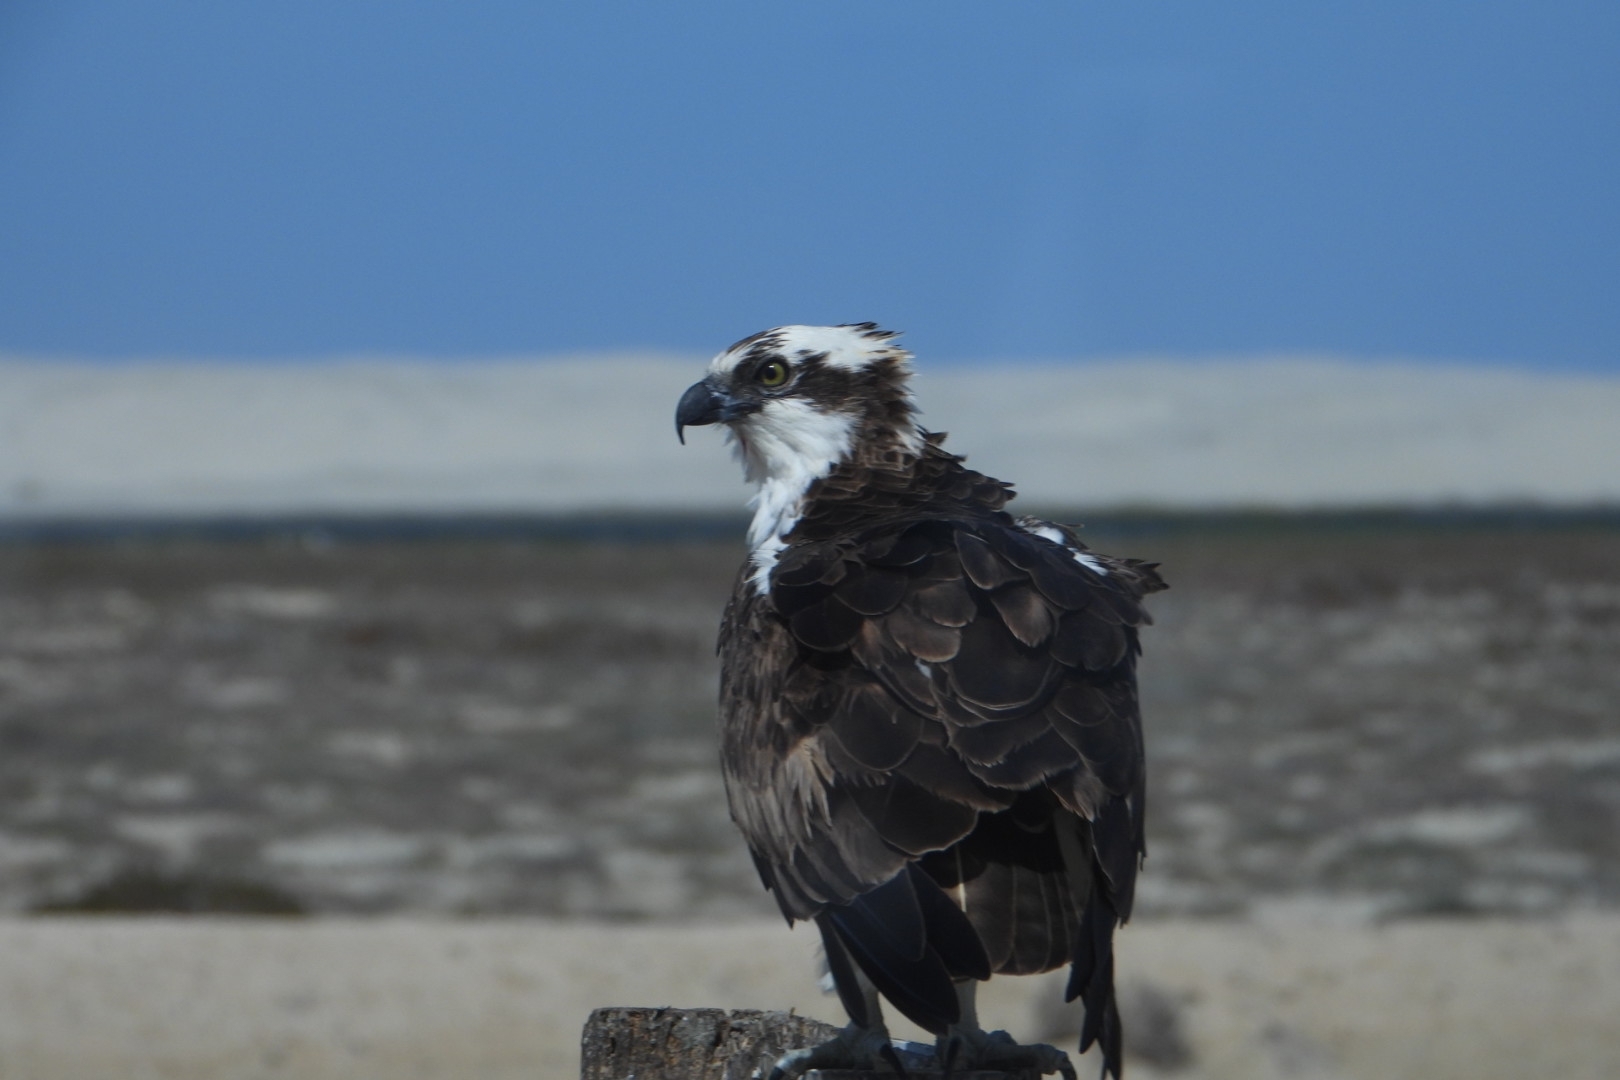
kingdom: Animalia
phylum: Chordata
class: Aves
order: Accipitriformes
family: Pandionidae
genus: Pandion
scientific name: Pandion haliaetus
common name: Osprey
